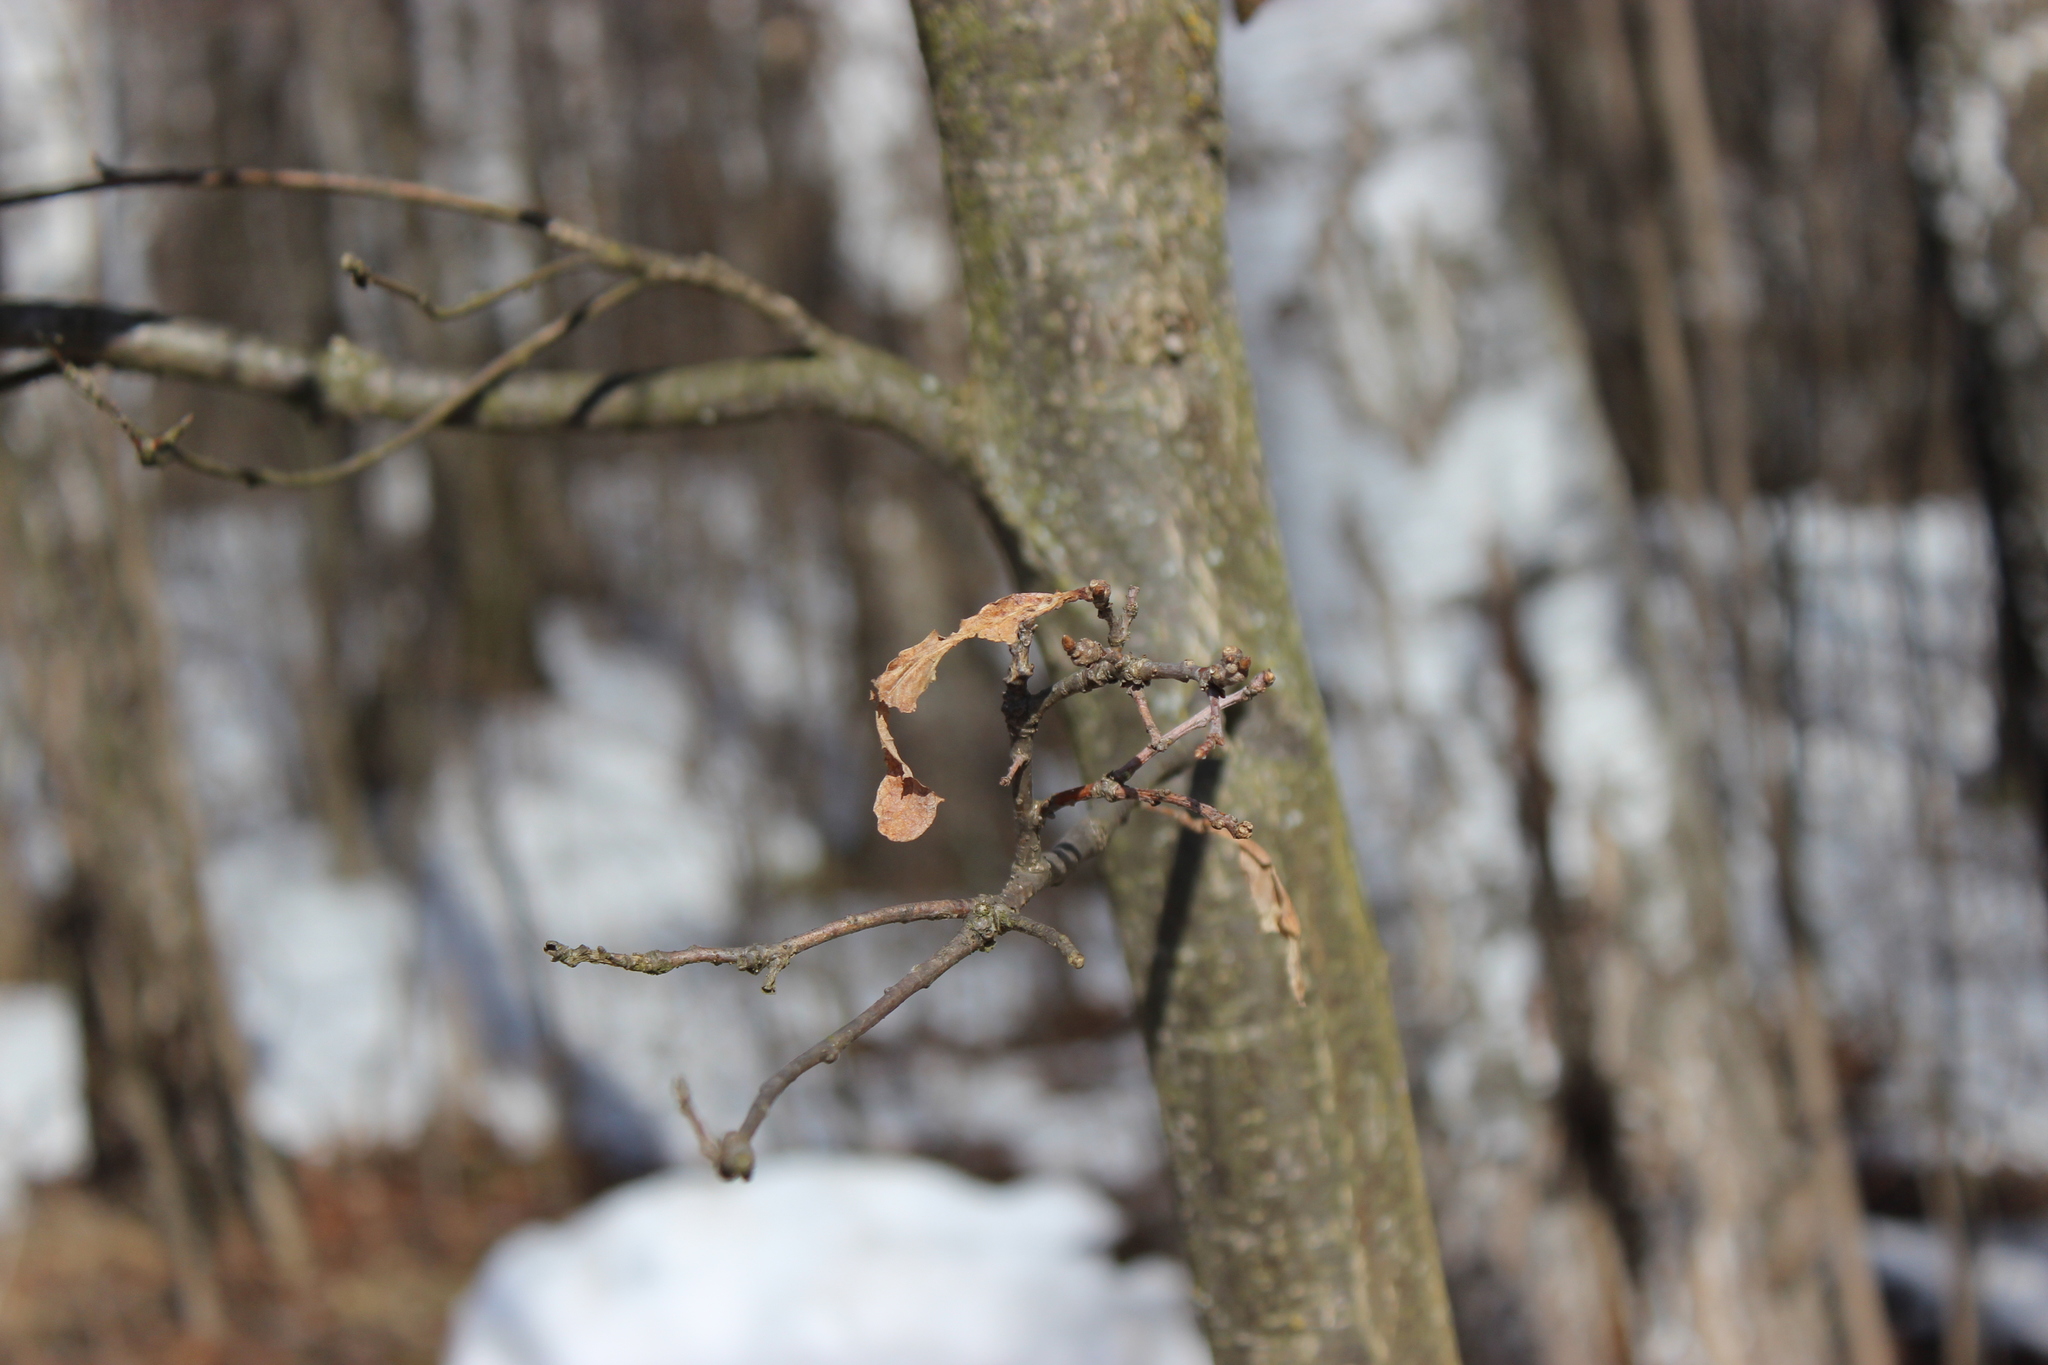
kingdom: Plantae
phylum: Tracheophyta
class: Magnoliopsida
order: Fagales
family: Fagaceae
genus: Quercus
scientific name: Quercus robur
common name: Pedunculate oak
